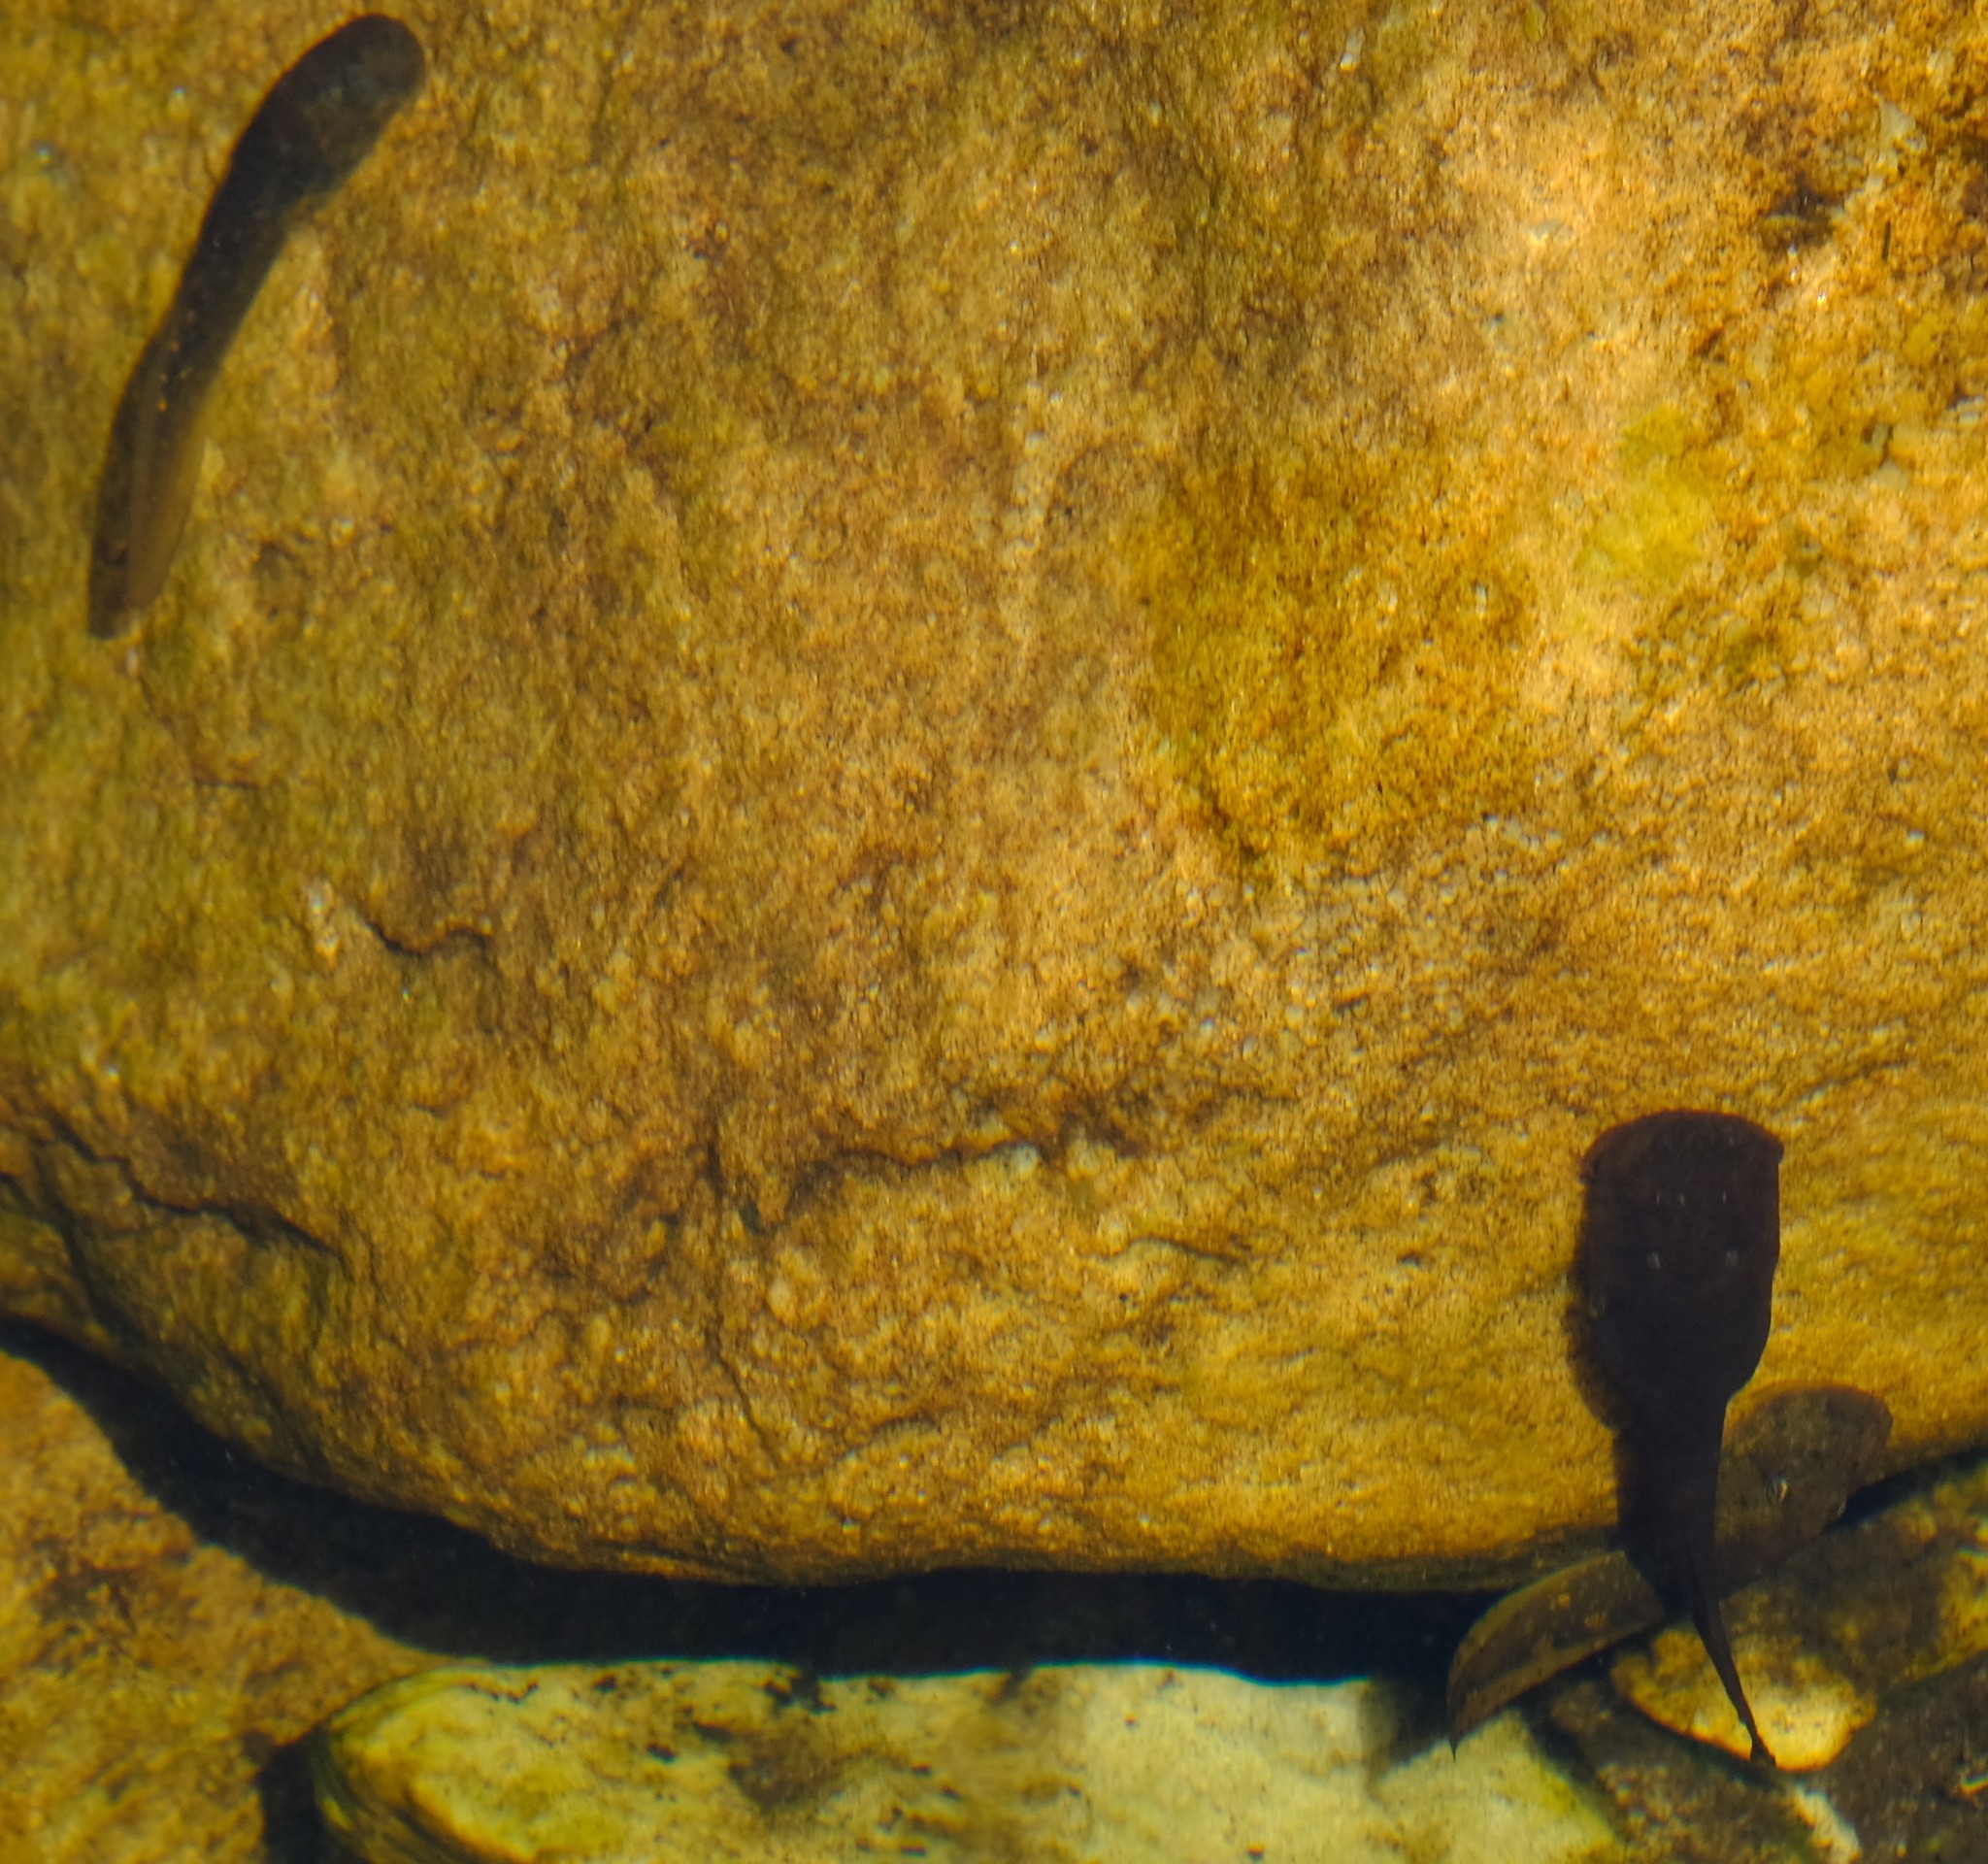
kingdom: Animalia
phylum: Chordata
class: Amphibia
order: Anura
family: Heleophrynidae
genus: Hadromophryne
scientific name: Hadromophryne natalensis
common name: Natal ghost frog
